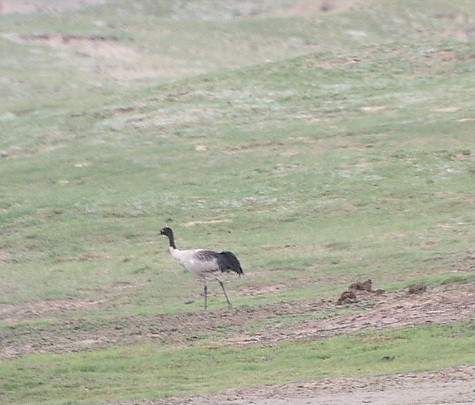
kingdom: Animalia
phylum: Chordata
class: Aves
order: Gruiformes
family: Gruidae
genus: Grus
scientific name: Grus nigricollis
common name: Black-necked crane
